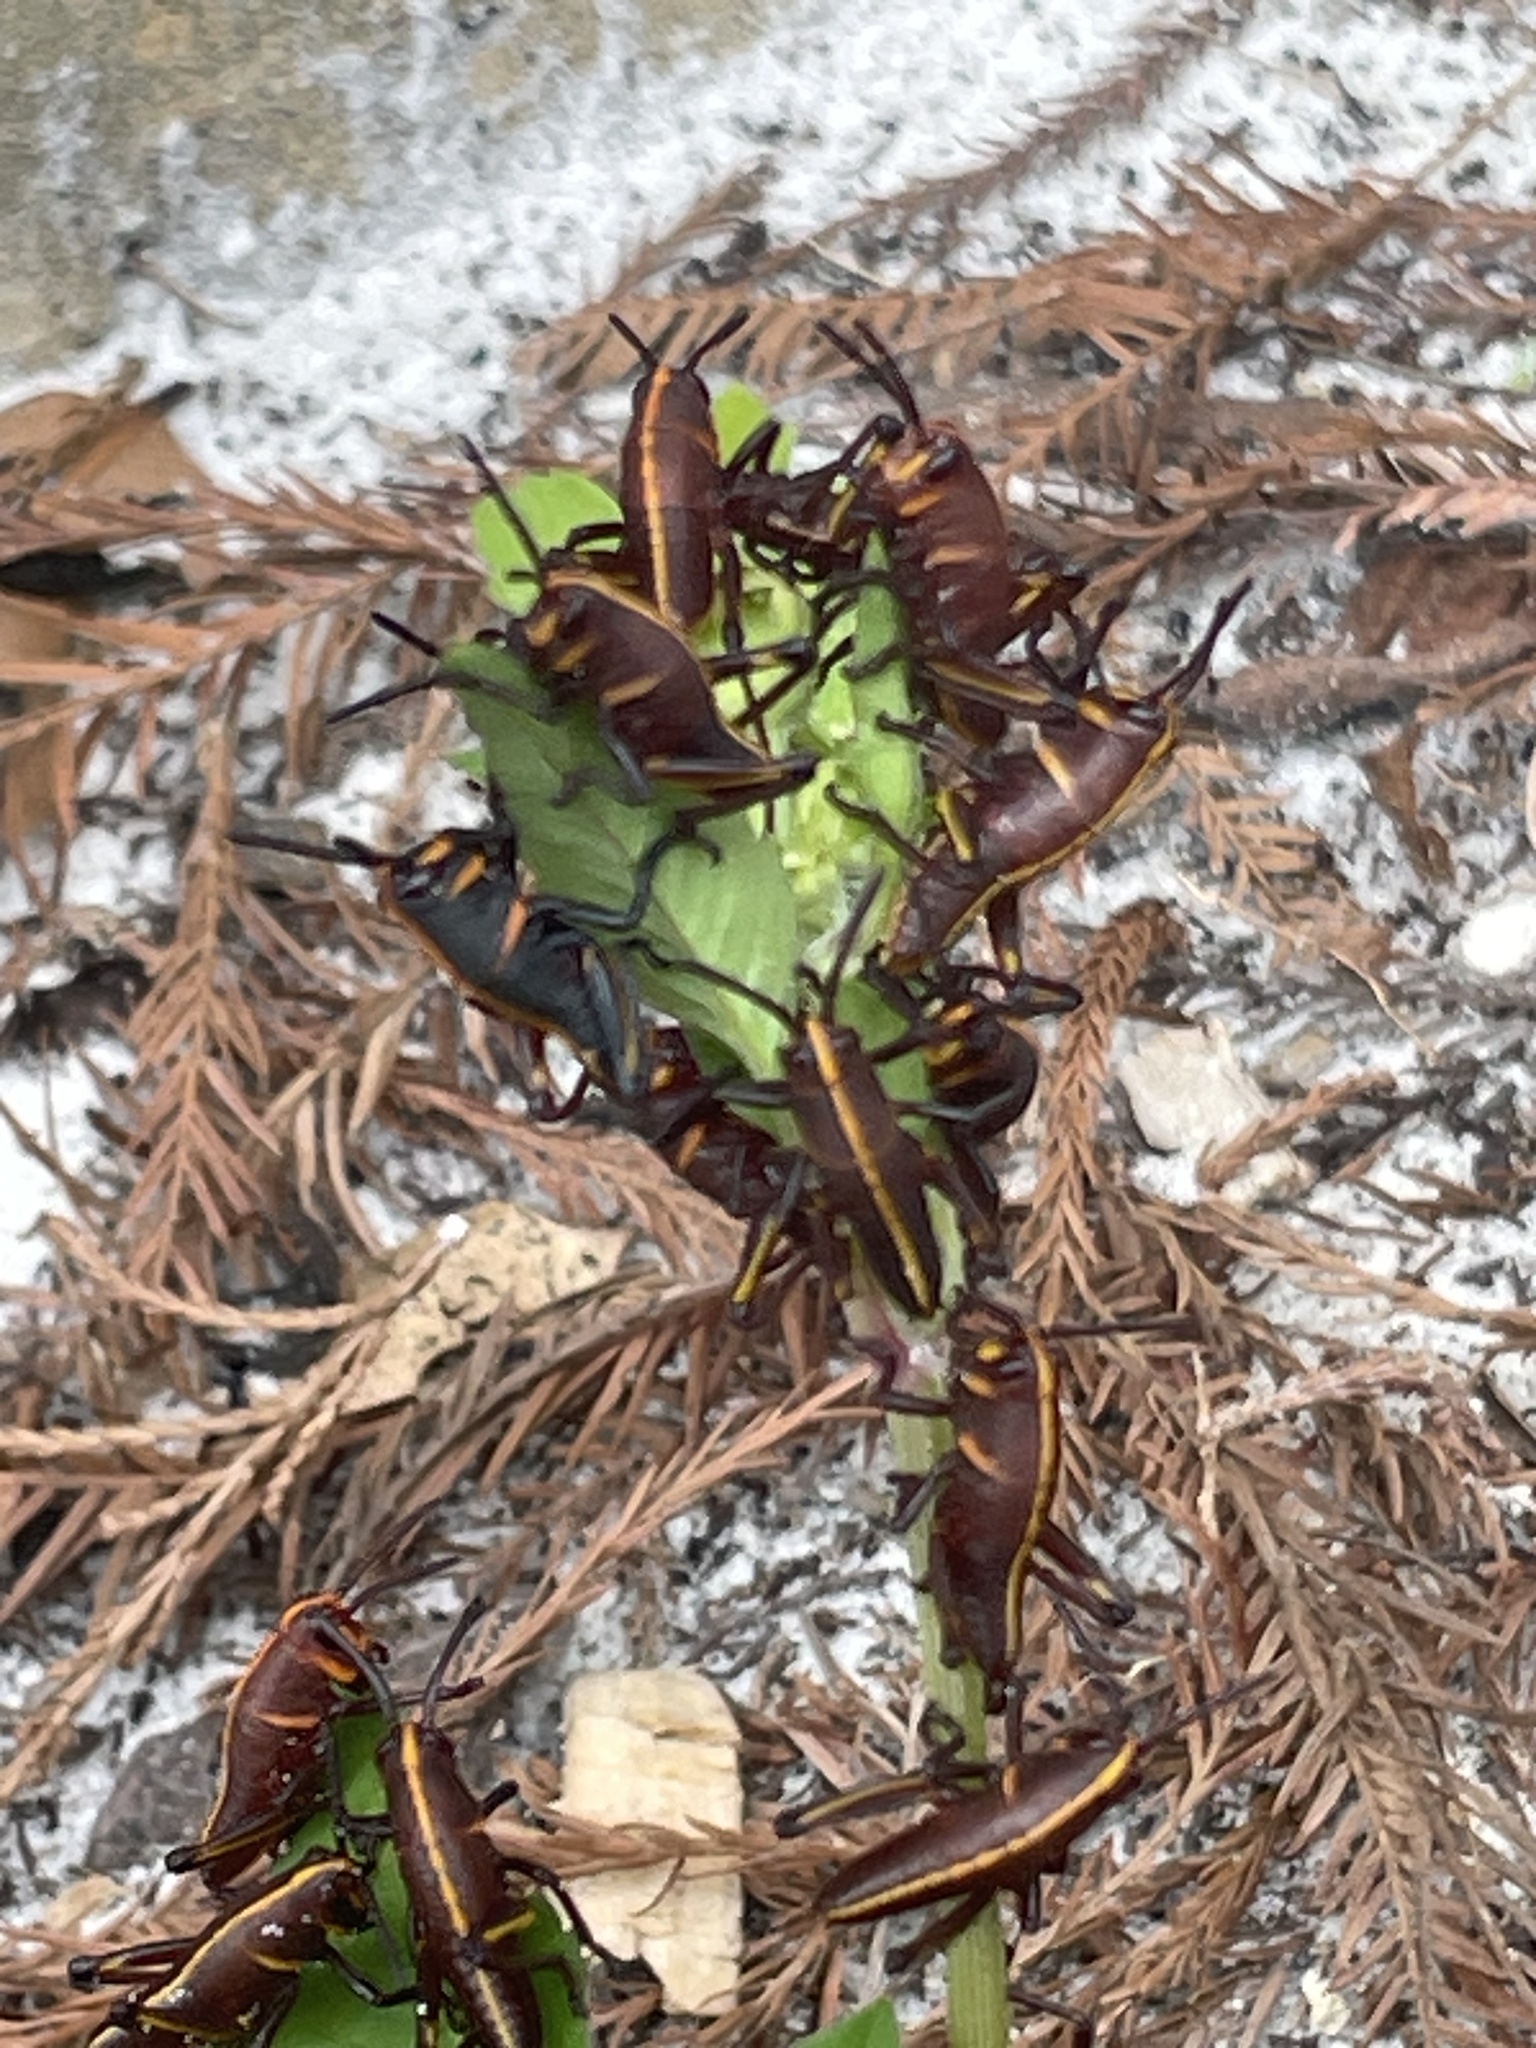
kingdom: Animalia
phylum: Arthropoda
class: Insecta
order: Orthoptera
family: Romaleidae
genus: Romalea
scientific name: Romalea microptera
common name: Eastern lubber grasshopper
